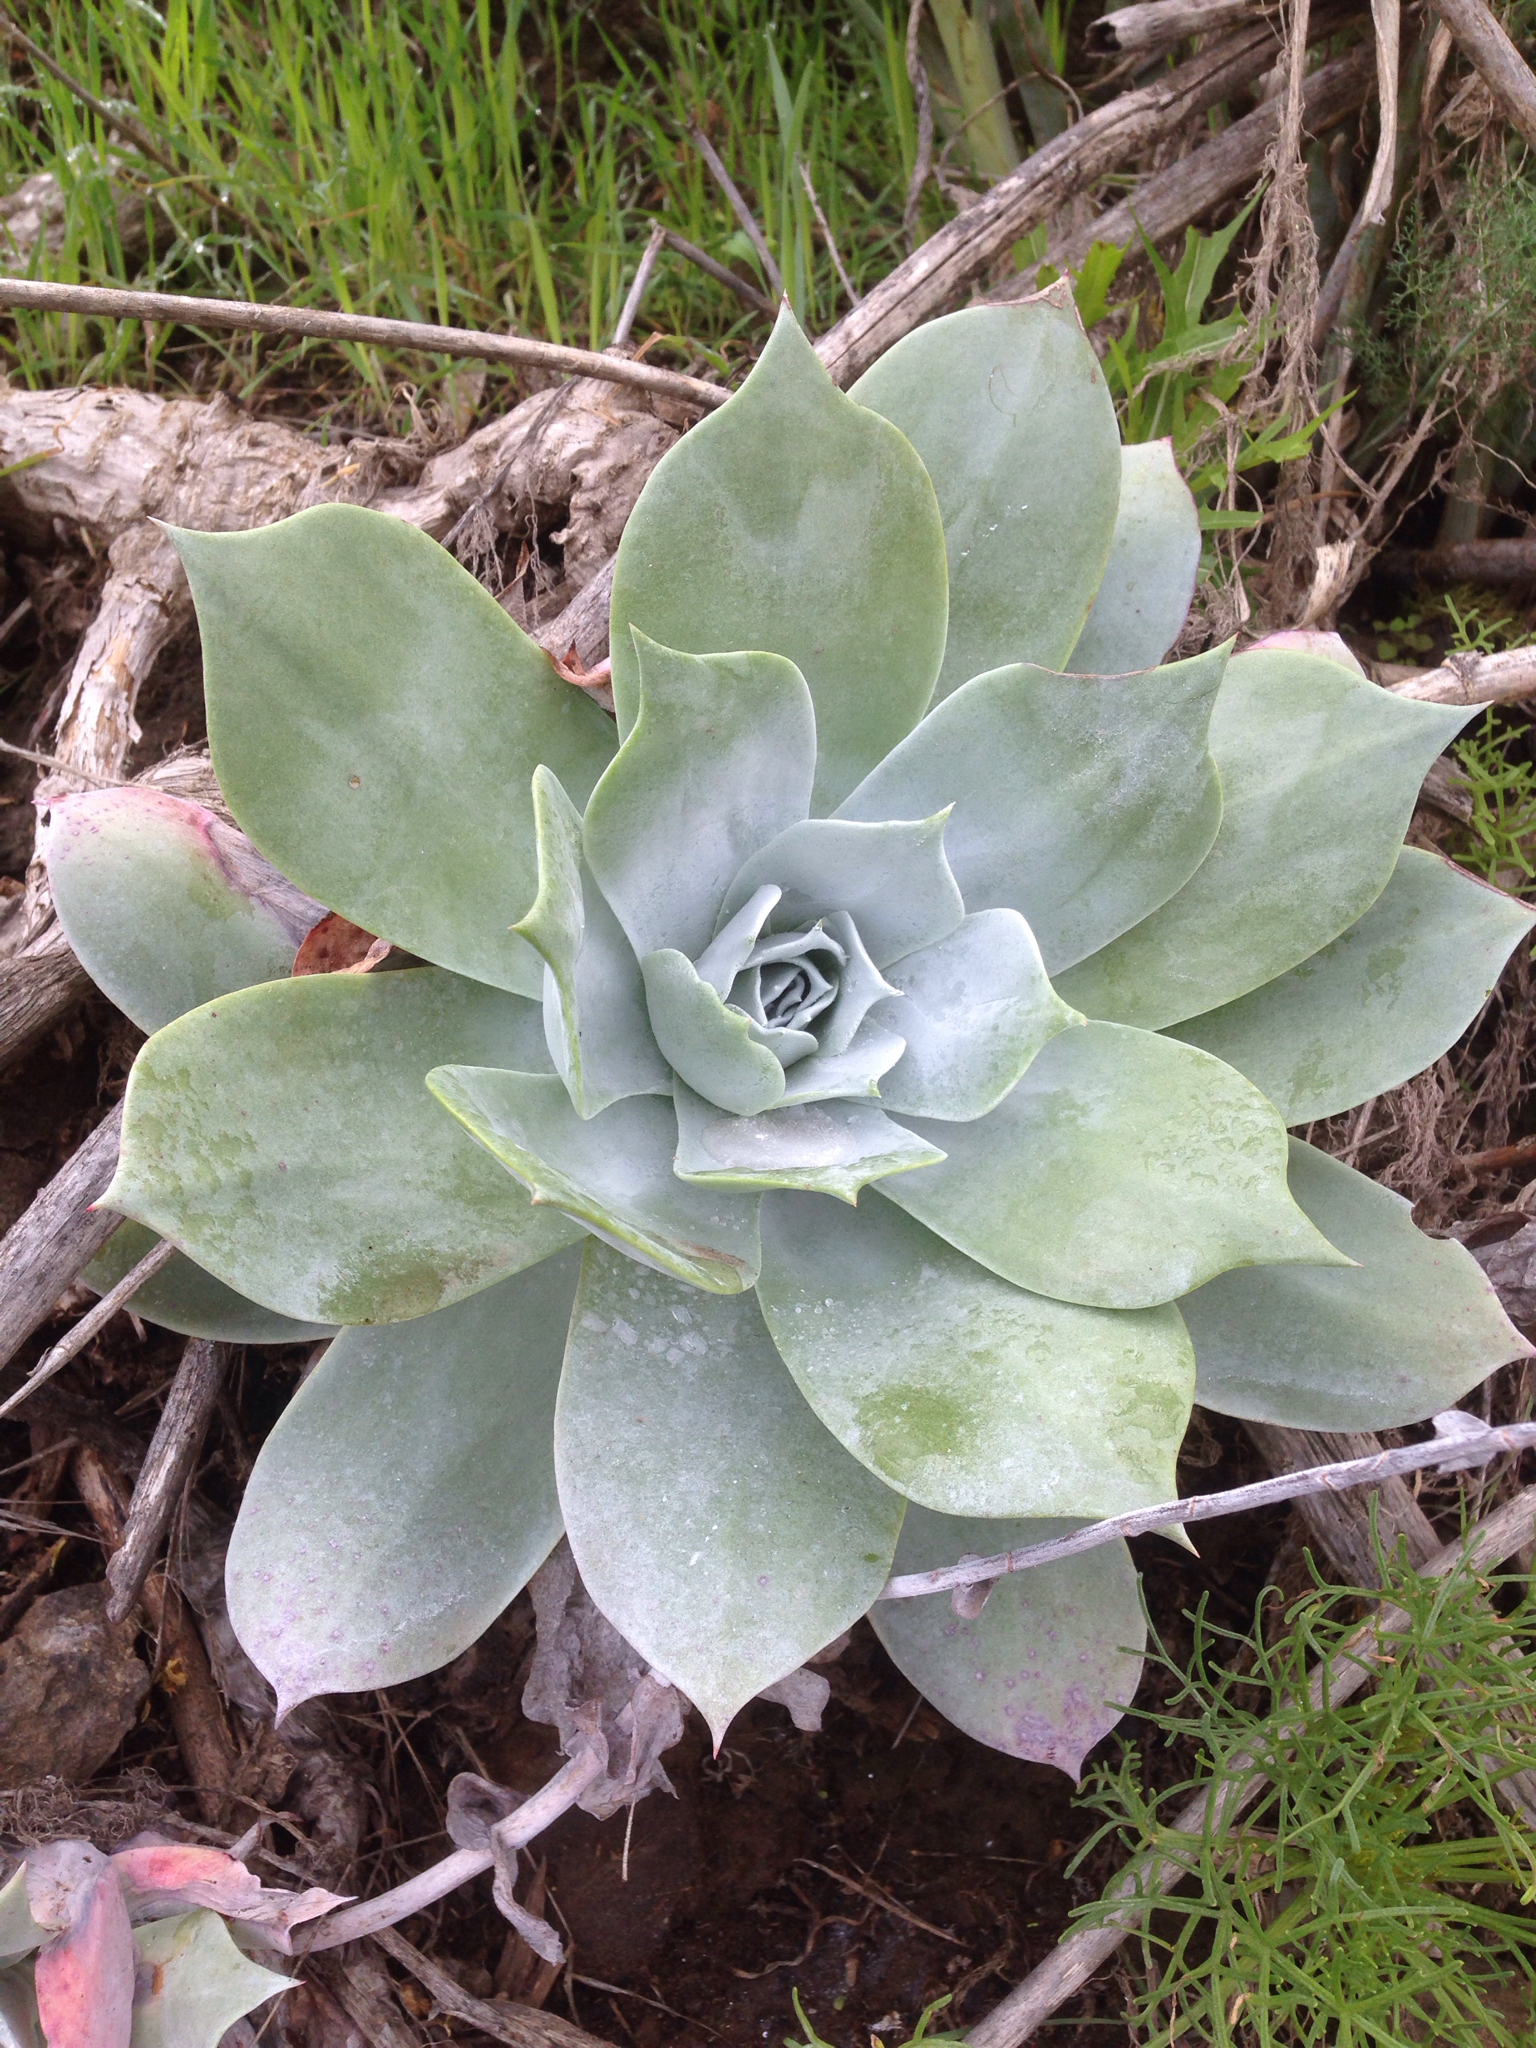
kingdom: Plantae
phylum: Tracheophyta
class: Magnoliopsida
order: Saxifragales
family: Crassulaceae
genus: Dudleya
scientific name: Dudleya pulverulenta
